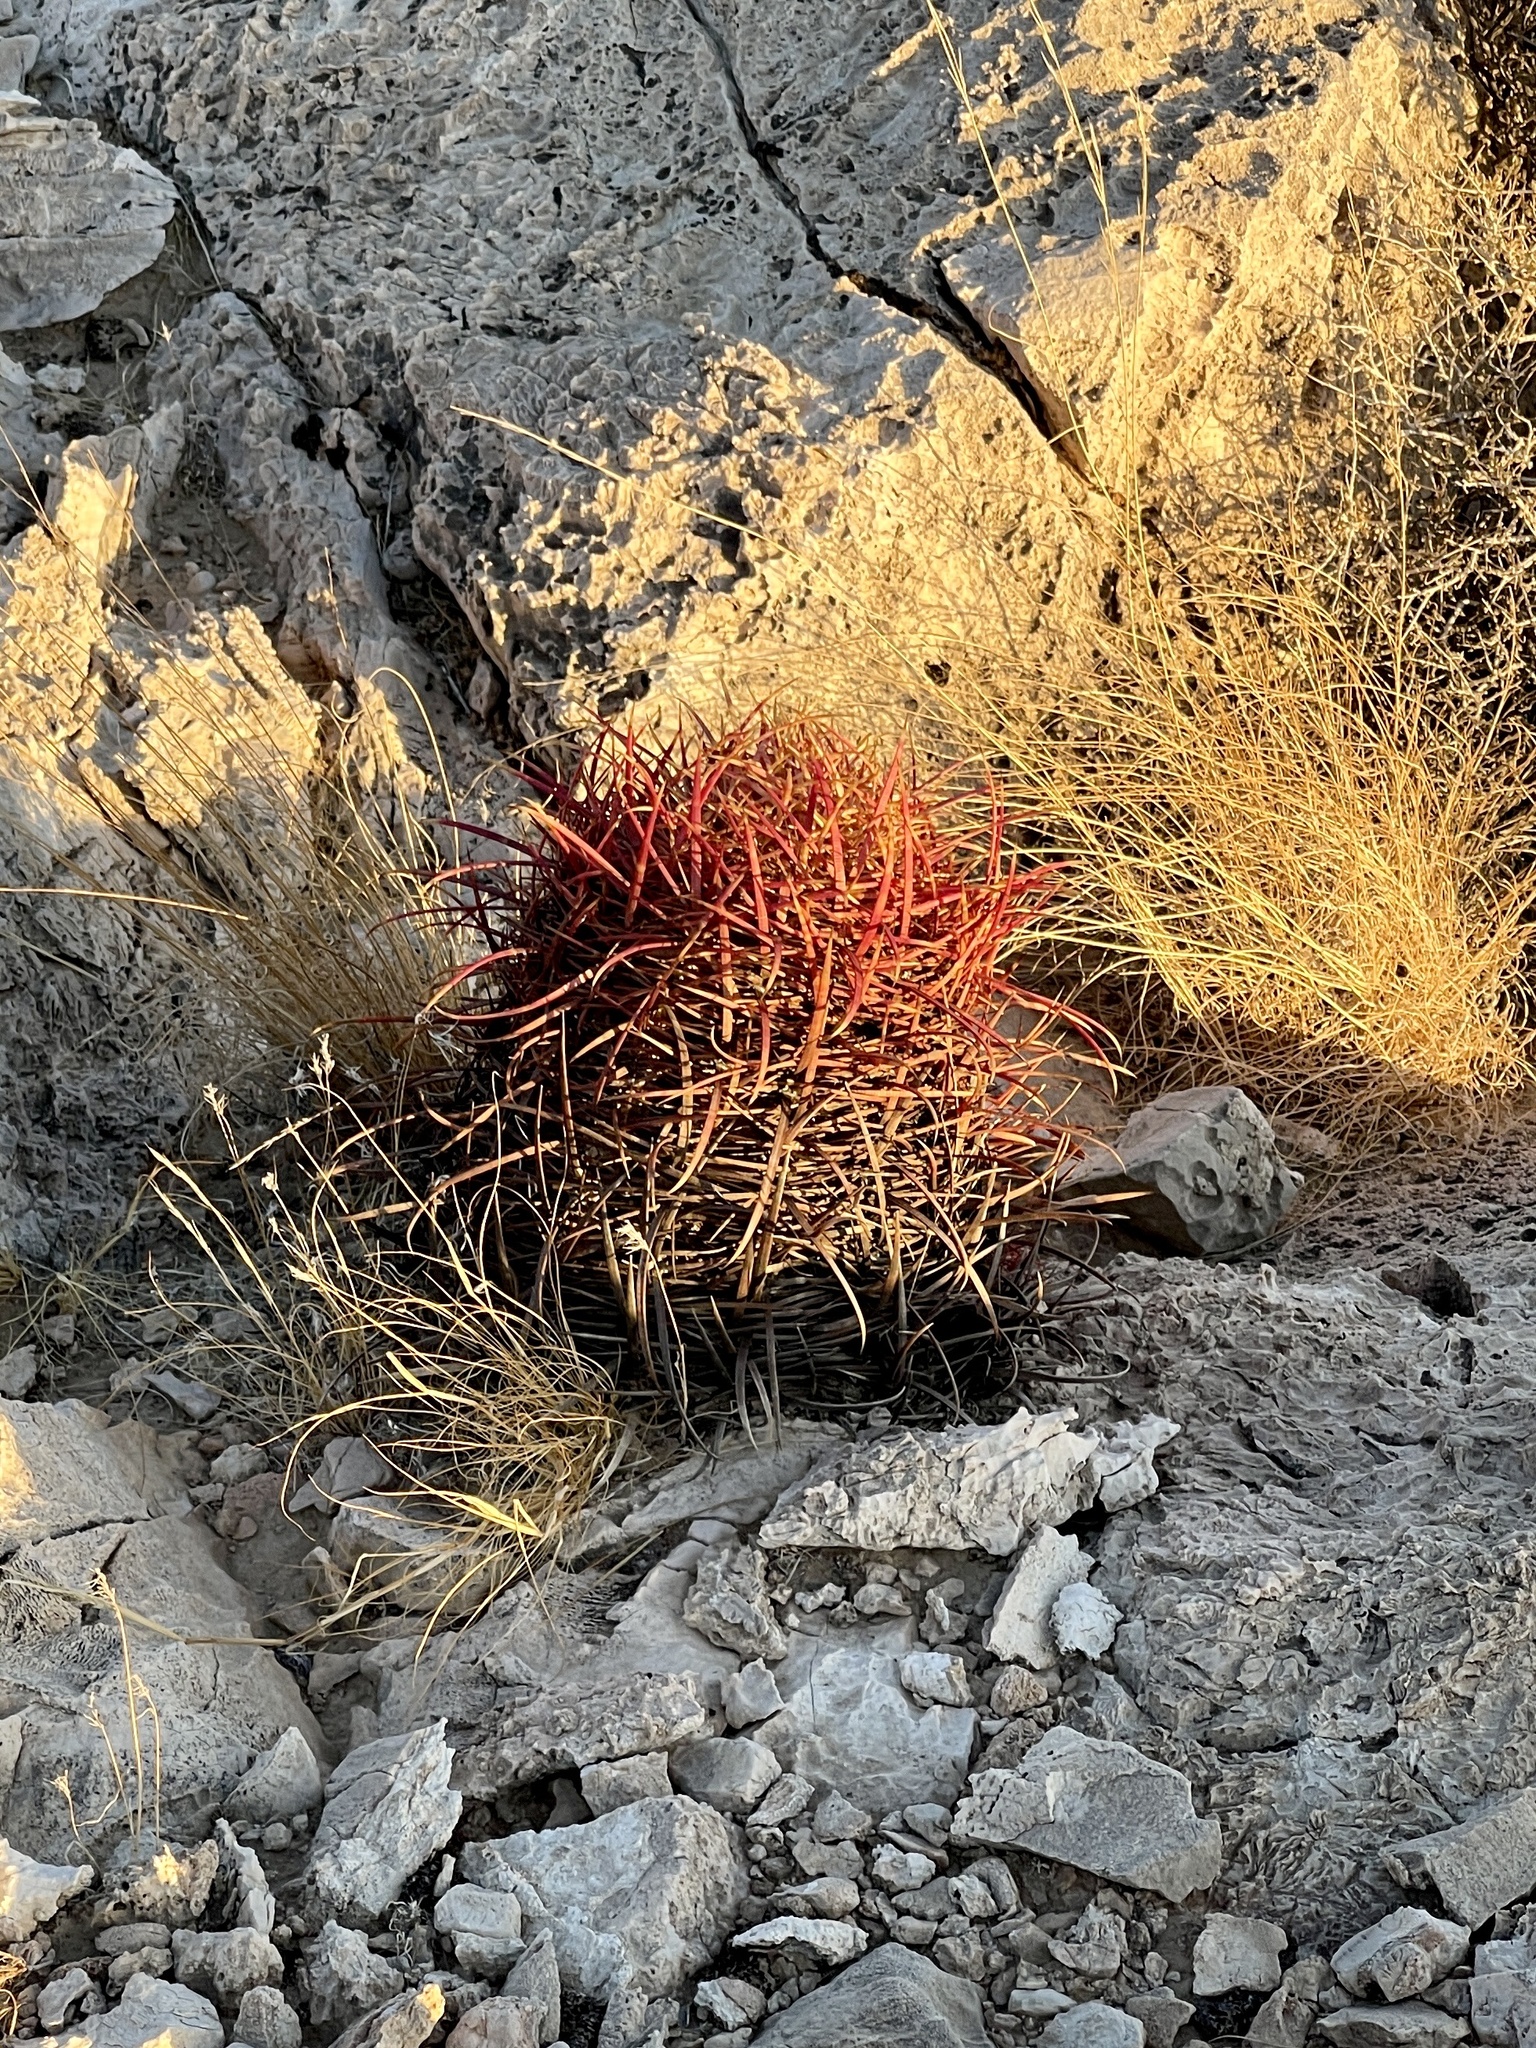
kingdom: Plantae
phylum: Tracheophyta
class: Magnoliopsida
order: Caryophyllales
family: Cactaceae
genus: Ferocactus
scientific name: Ferocactus cylindraceus
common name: California barrel cactus
